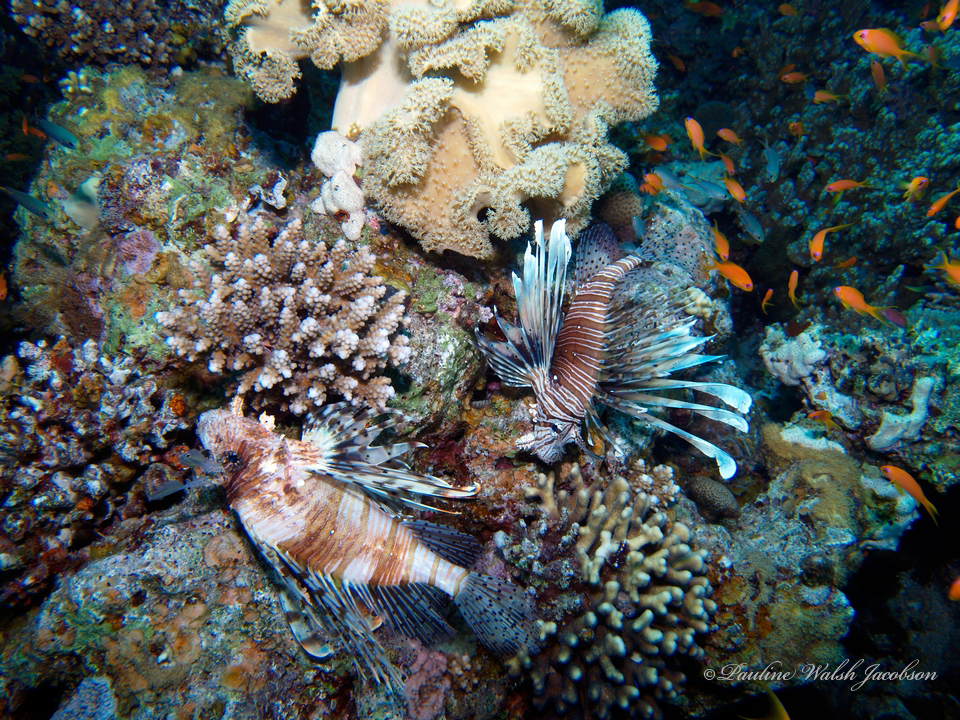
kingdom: Animalia
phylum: Chordata
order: Scorpaeniformes
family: Scorpaenidae
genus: Pterois
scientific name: Pterois miles
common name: Devil firefish
